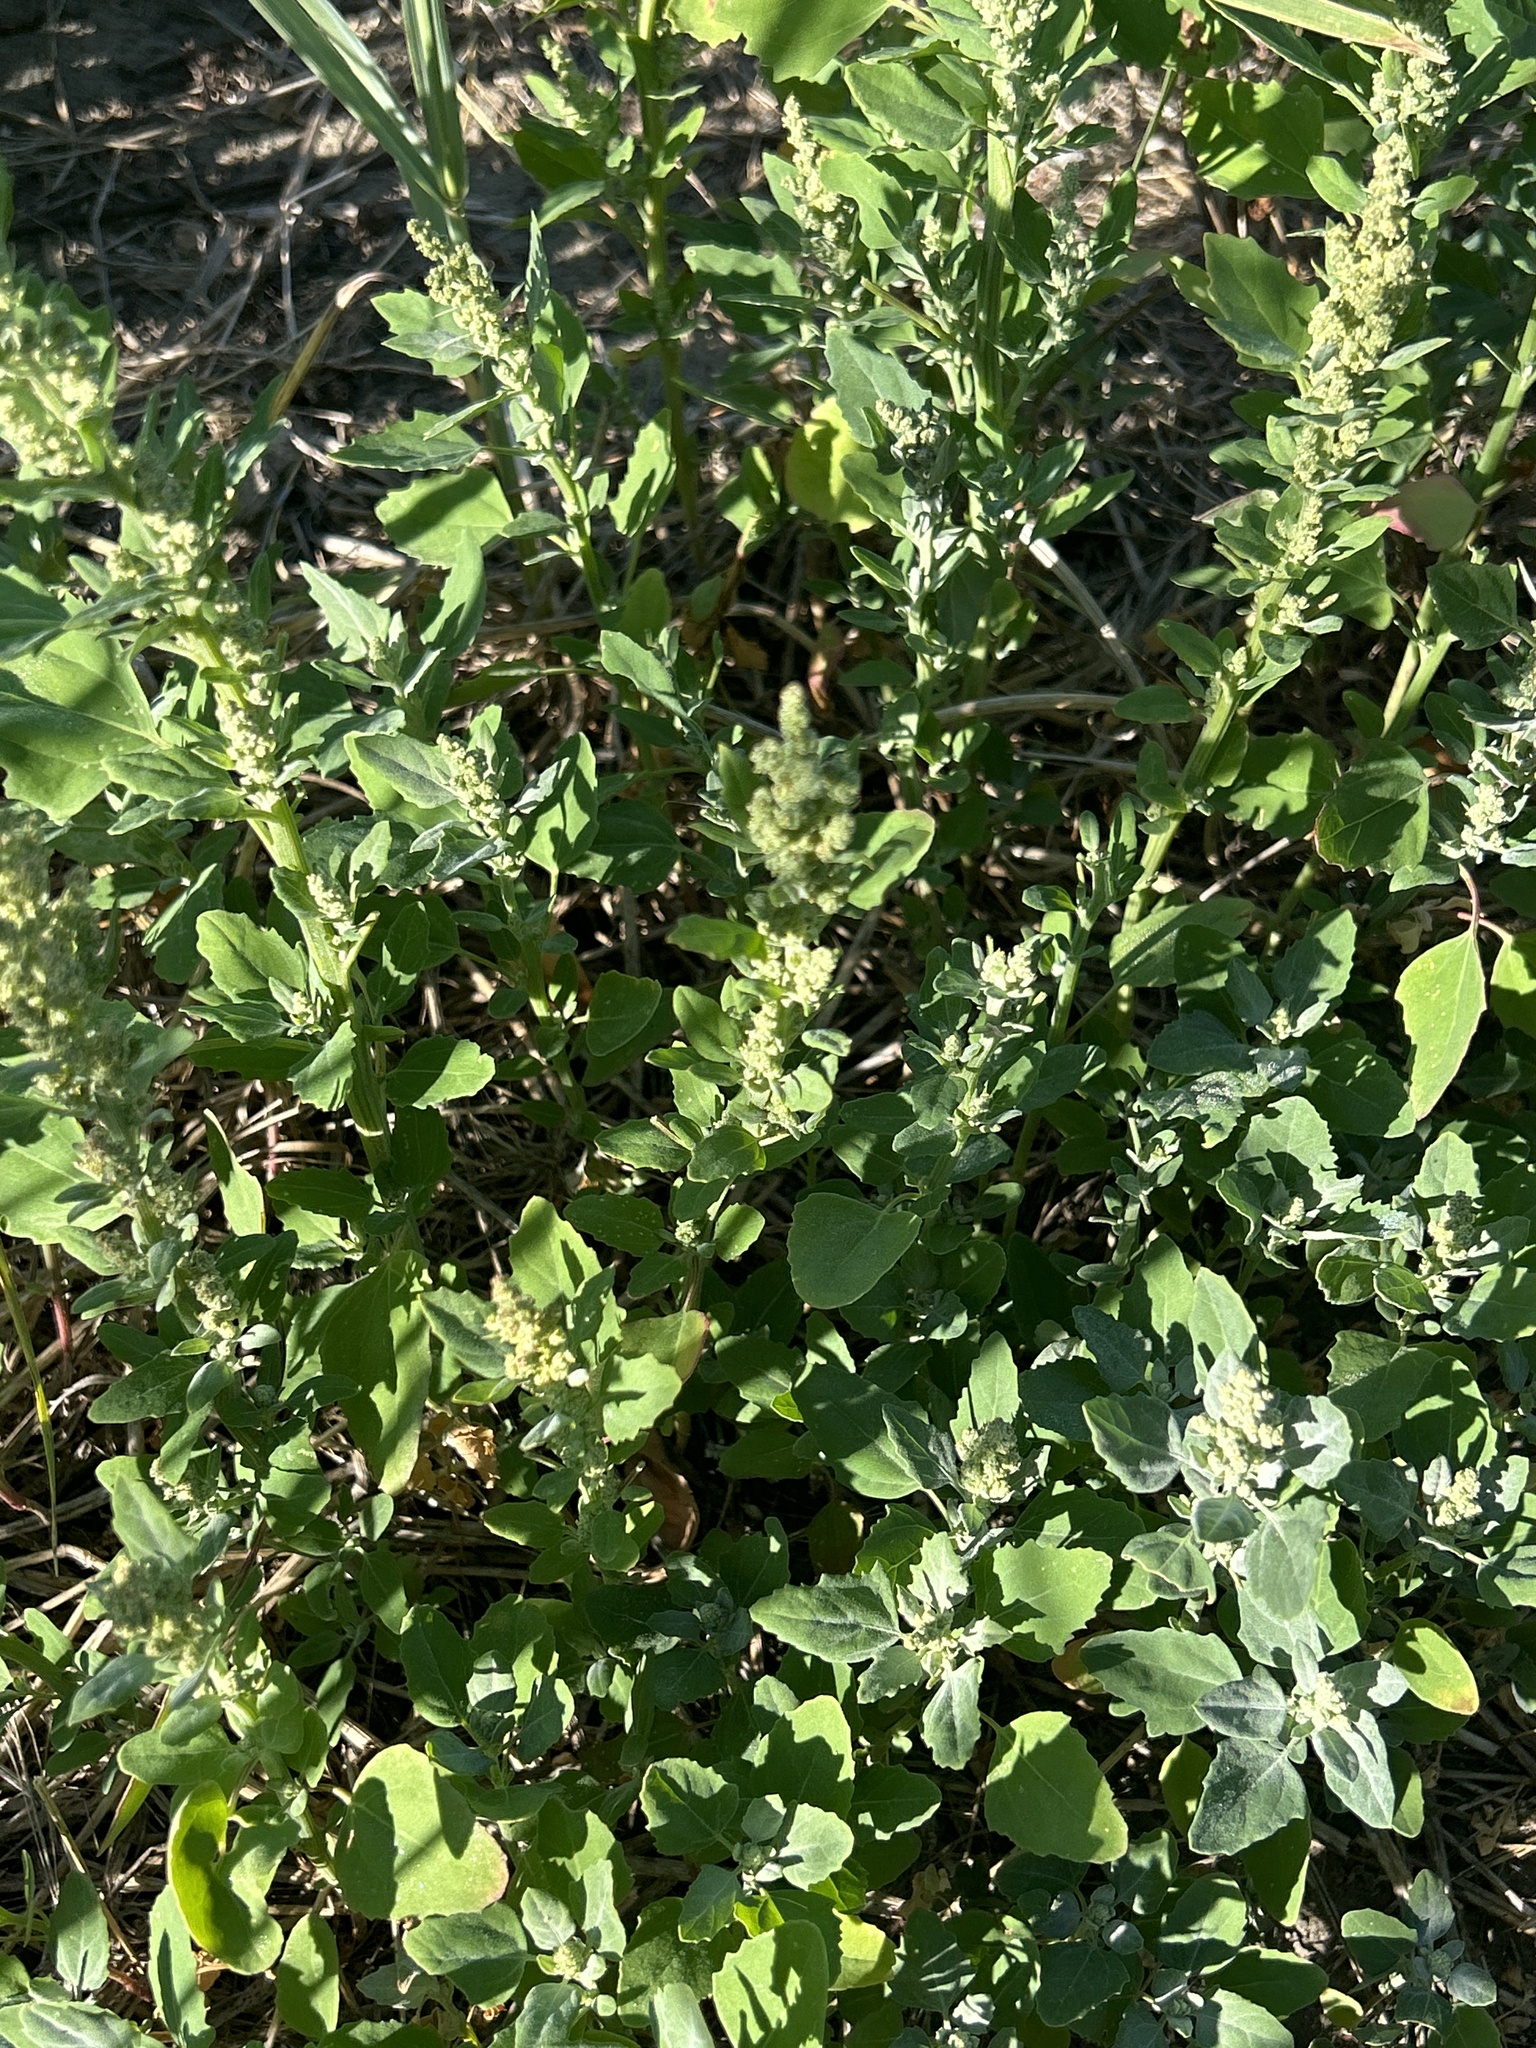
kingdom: Plantae
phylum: Tracheophyta
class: Magnoliopsida
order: Caryophyllales
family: Amaranthaceae
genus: Chenopodium
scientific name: Chenopodium album
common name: Fat-hen
